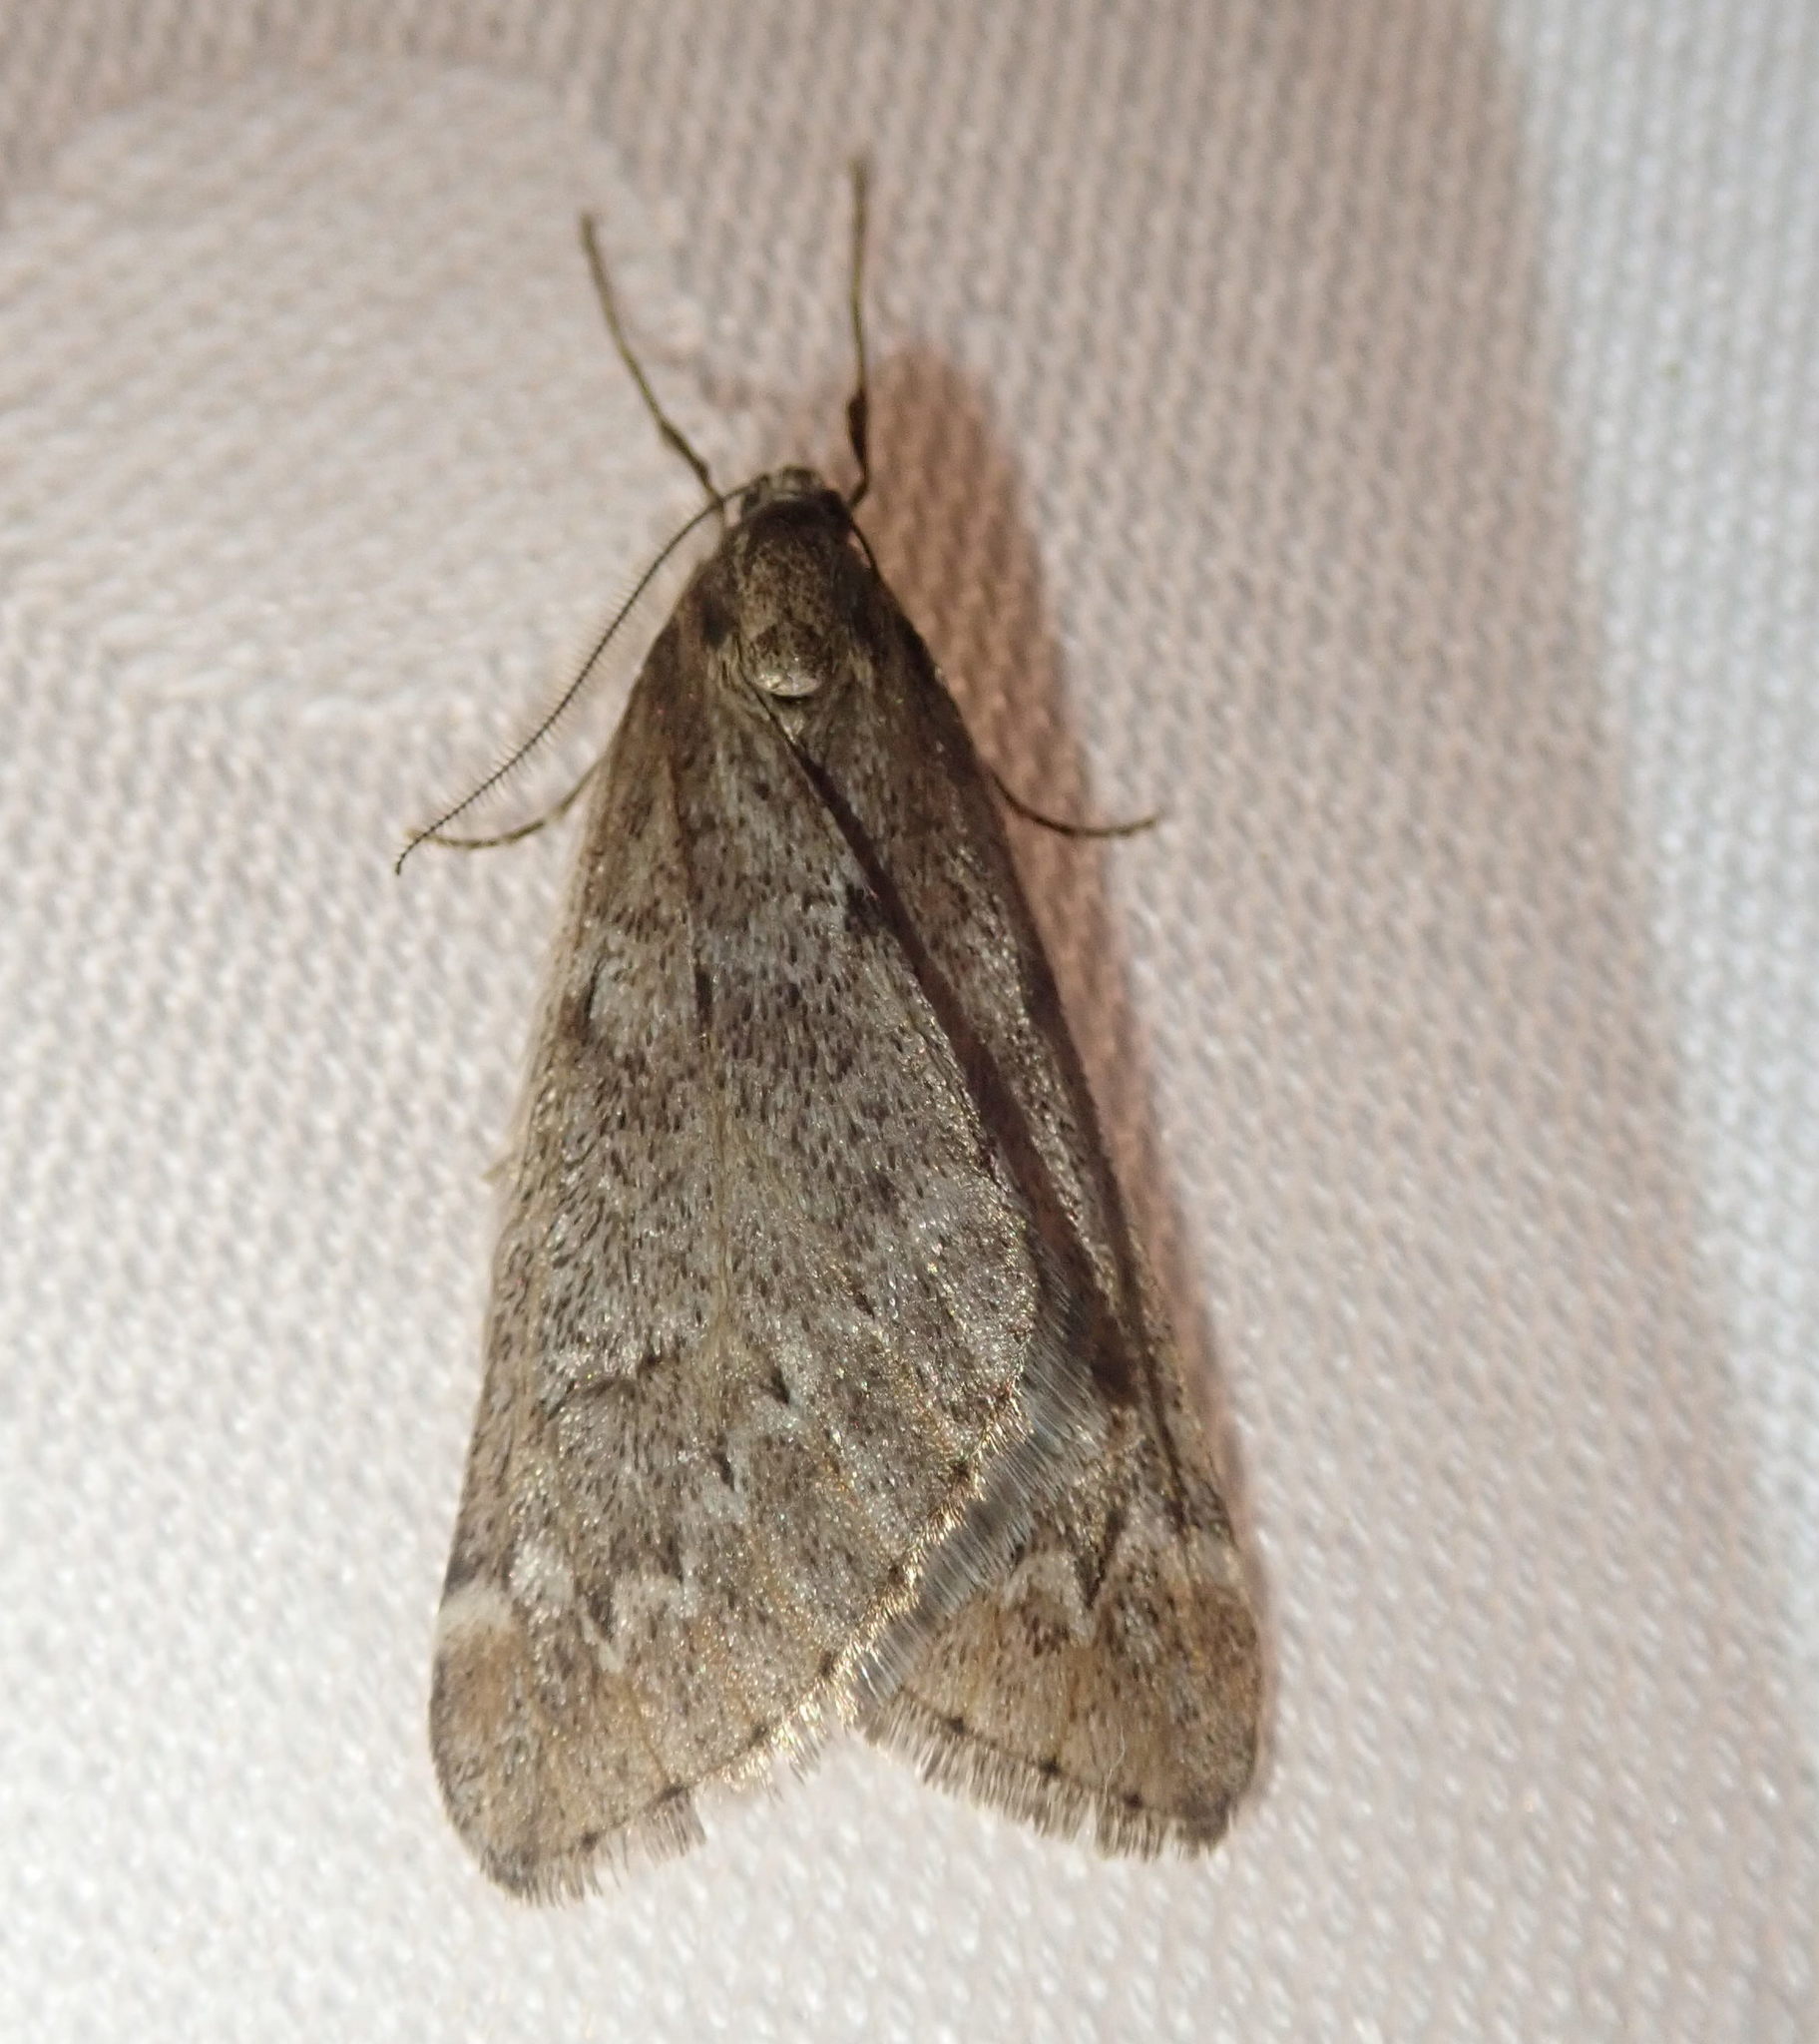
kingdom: Animalia
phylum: Arthropoda
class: Insecta
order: Lepidoptera
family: Geometridae
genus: Alsophila
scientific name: Alsophila aescularia
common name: March moth
